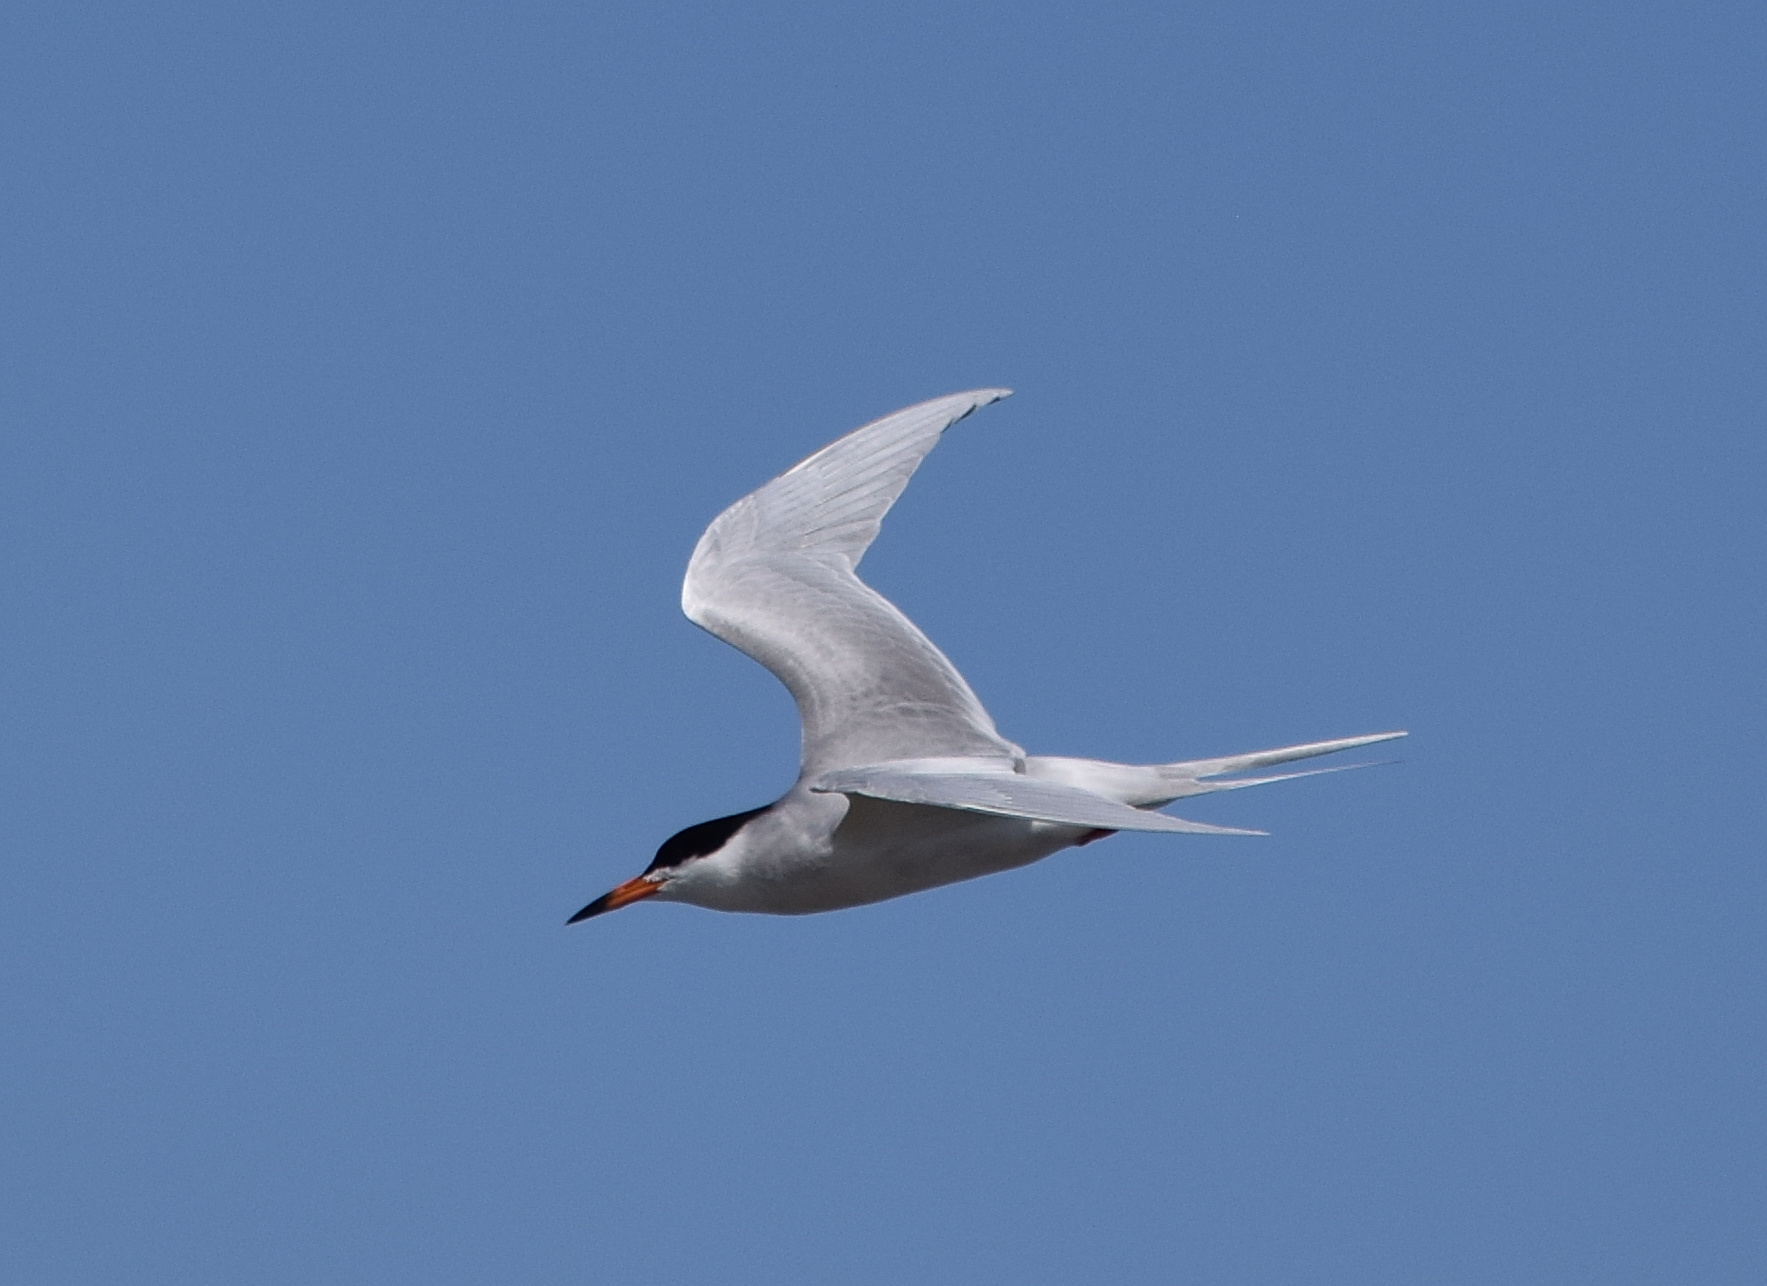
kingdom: Animalia
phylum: Chordata
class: Aves
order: Charadriiformes
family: Laridae
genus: Sterna
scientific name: Sterna forsteri
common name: Forster's tern
